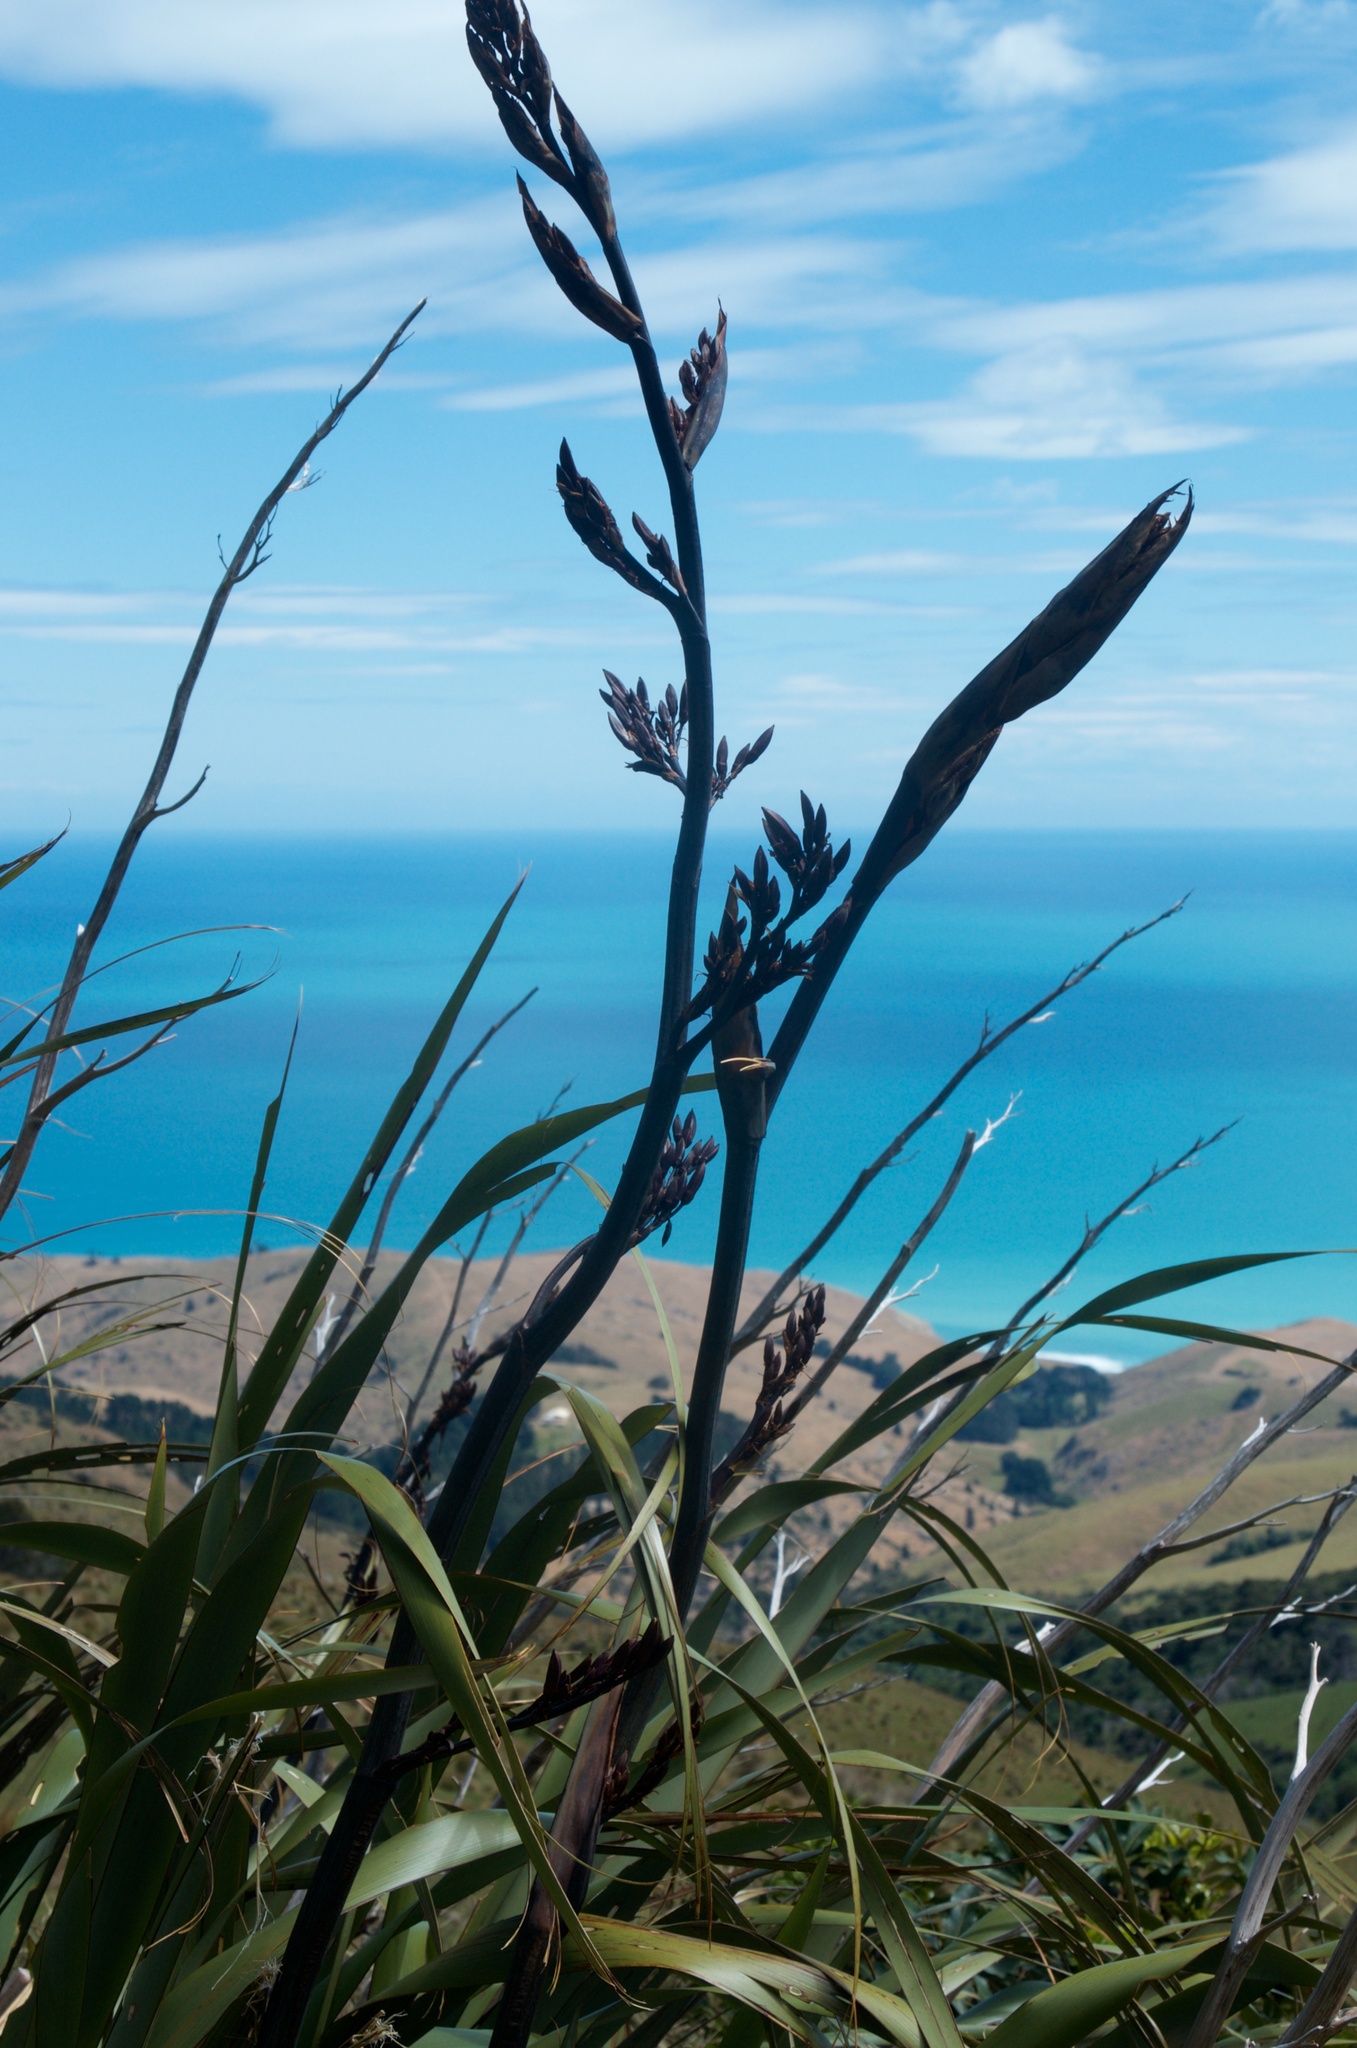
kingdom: Plantae
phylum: Tracheophyta
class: Liliopsida
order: Asparagales
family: Asphodelaceae
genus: Phormium
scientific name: Phormium tenax
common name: New zealand flax
